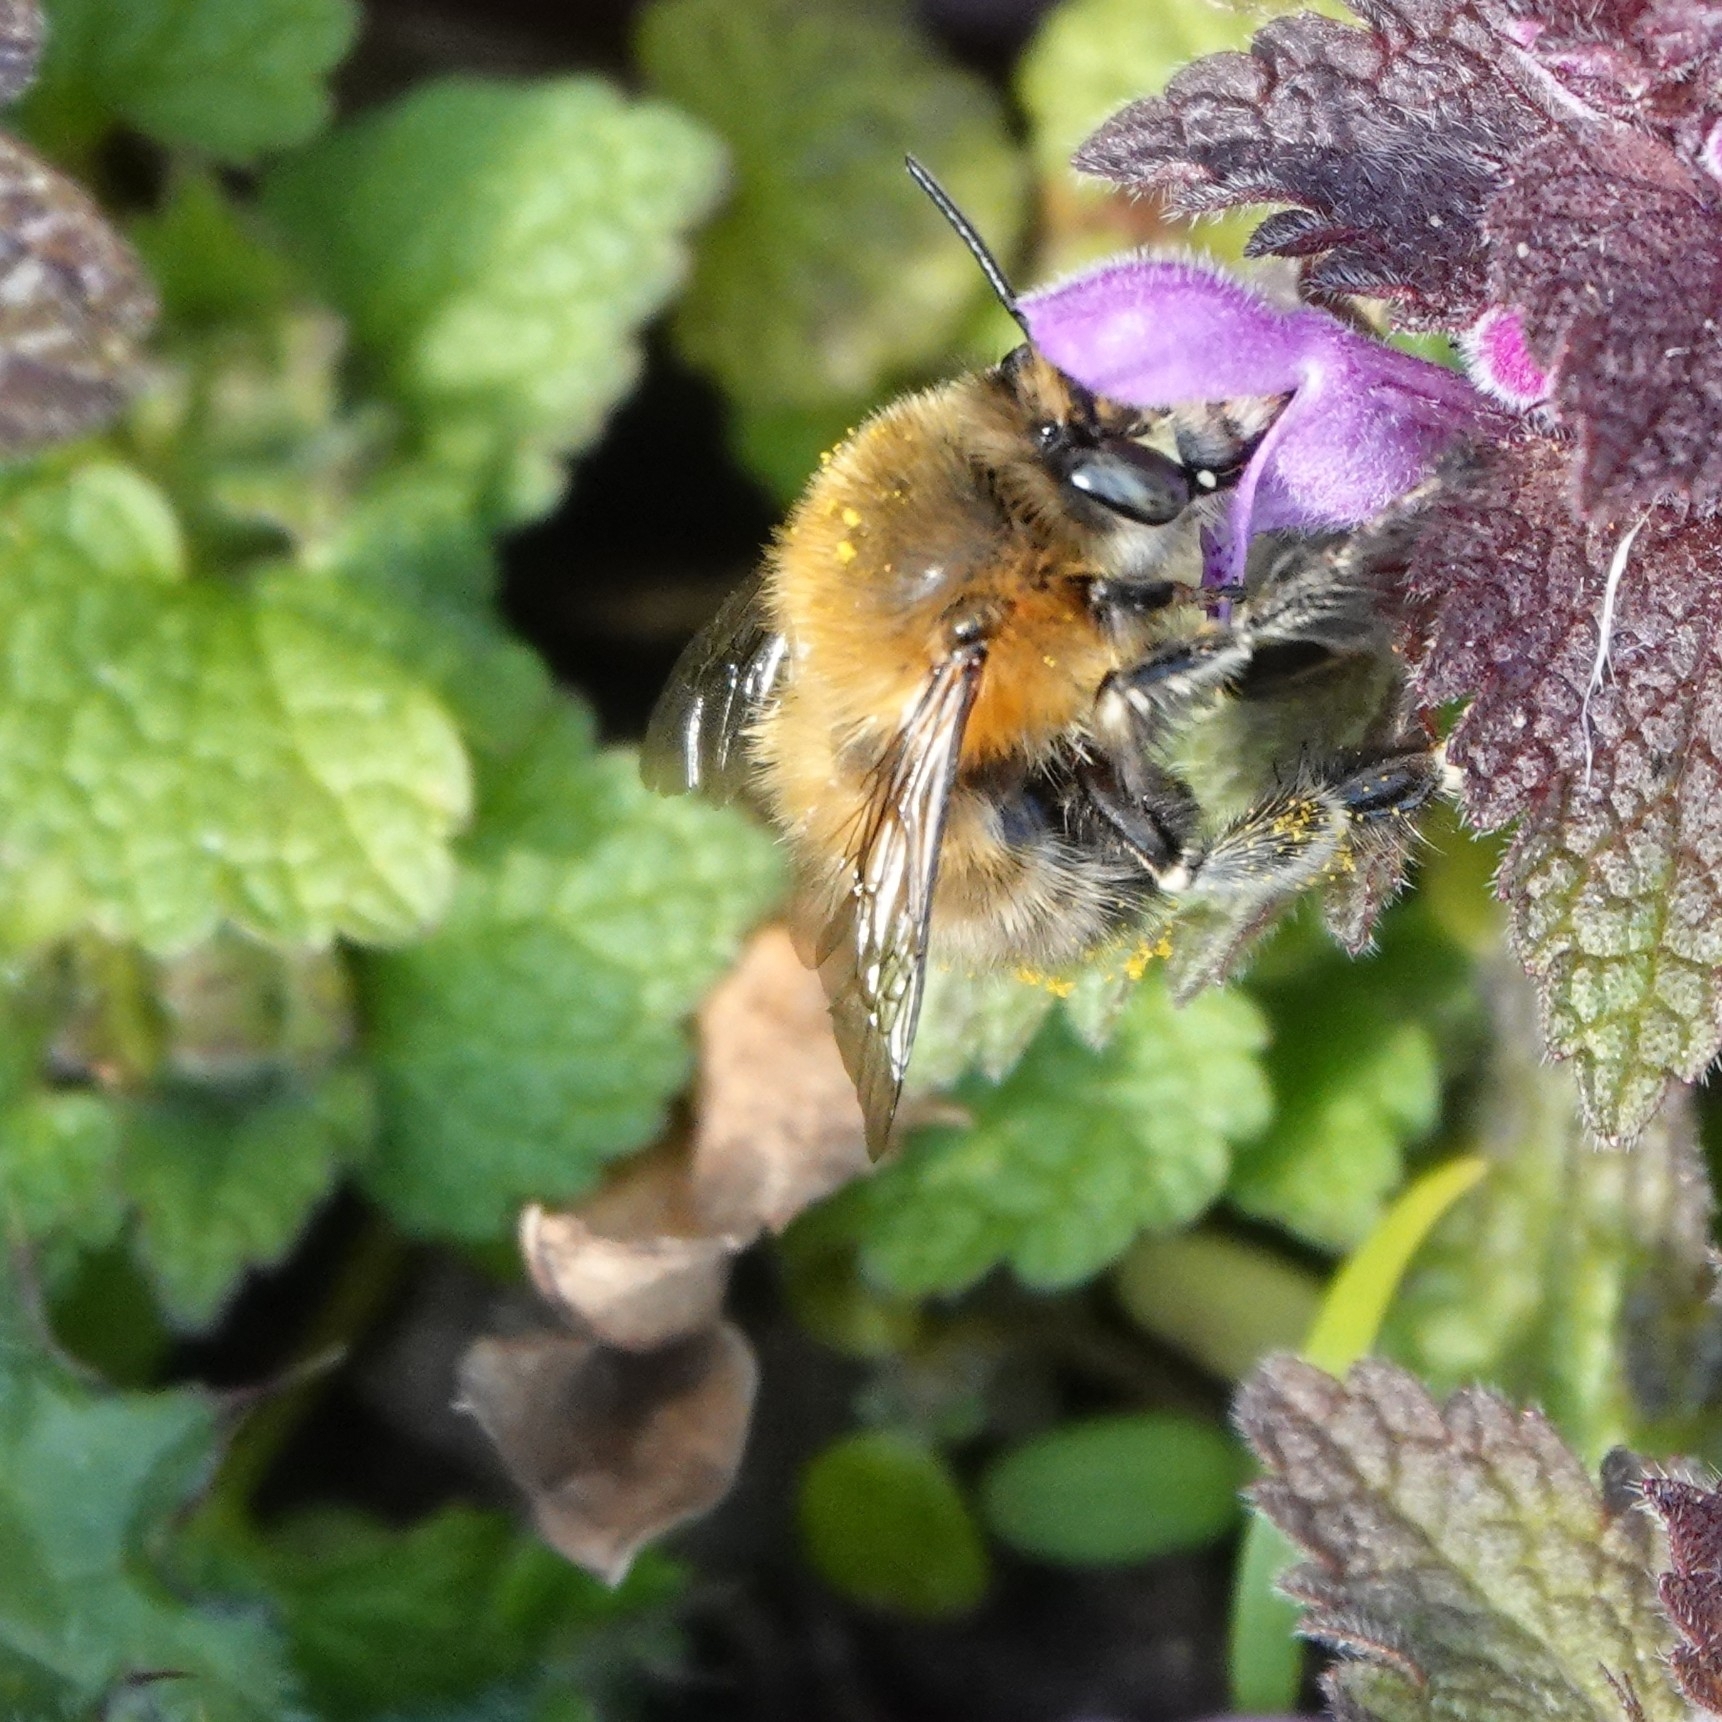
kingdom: Animalia
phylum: Arthropoda
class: Insecta
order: Hymenoptera
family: Apidae
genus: Anthophora
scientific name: Anthophora plumipes
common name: Hairy-footed flower bee
